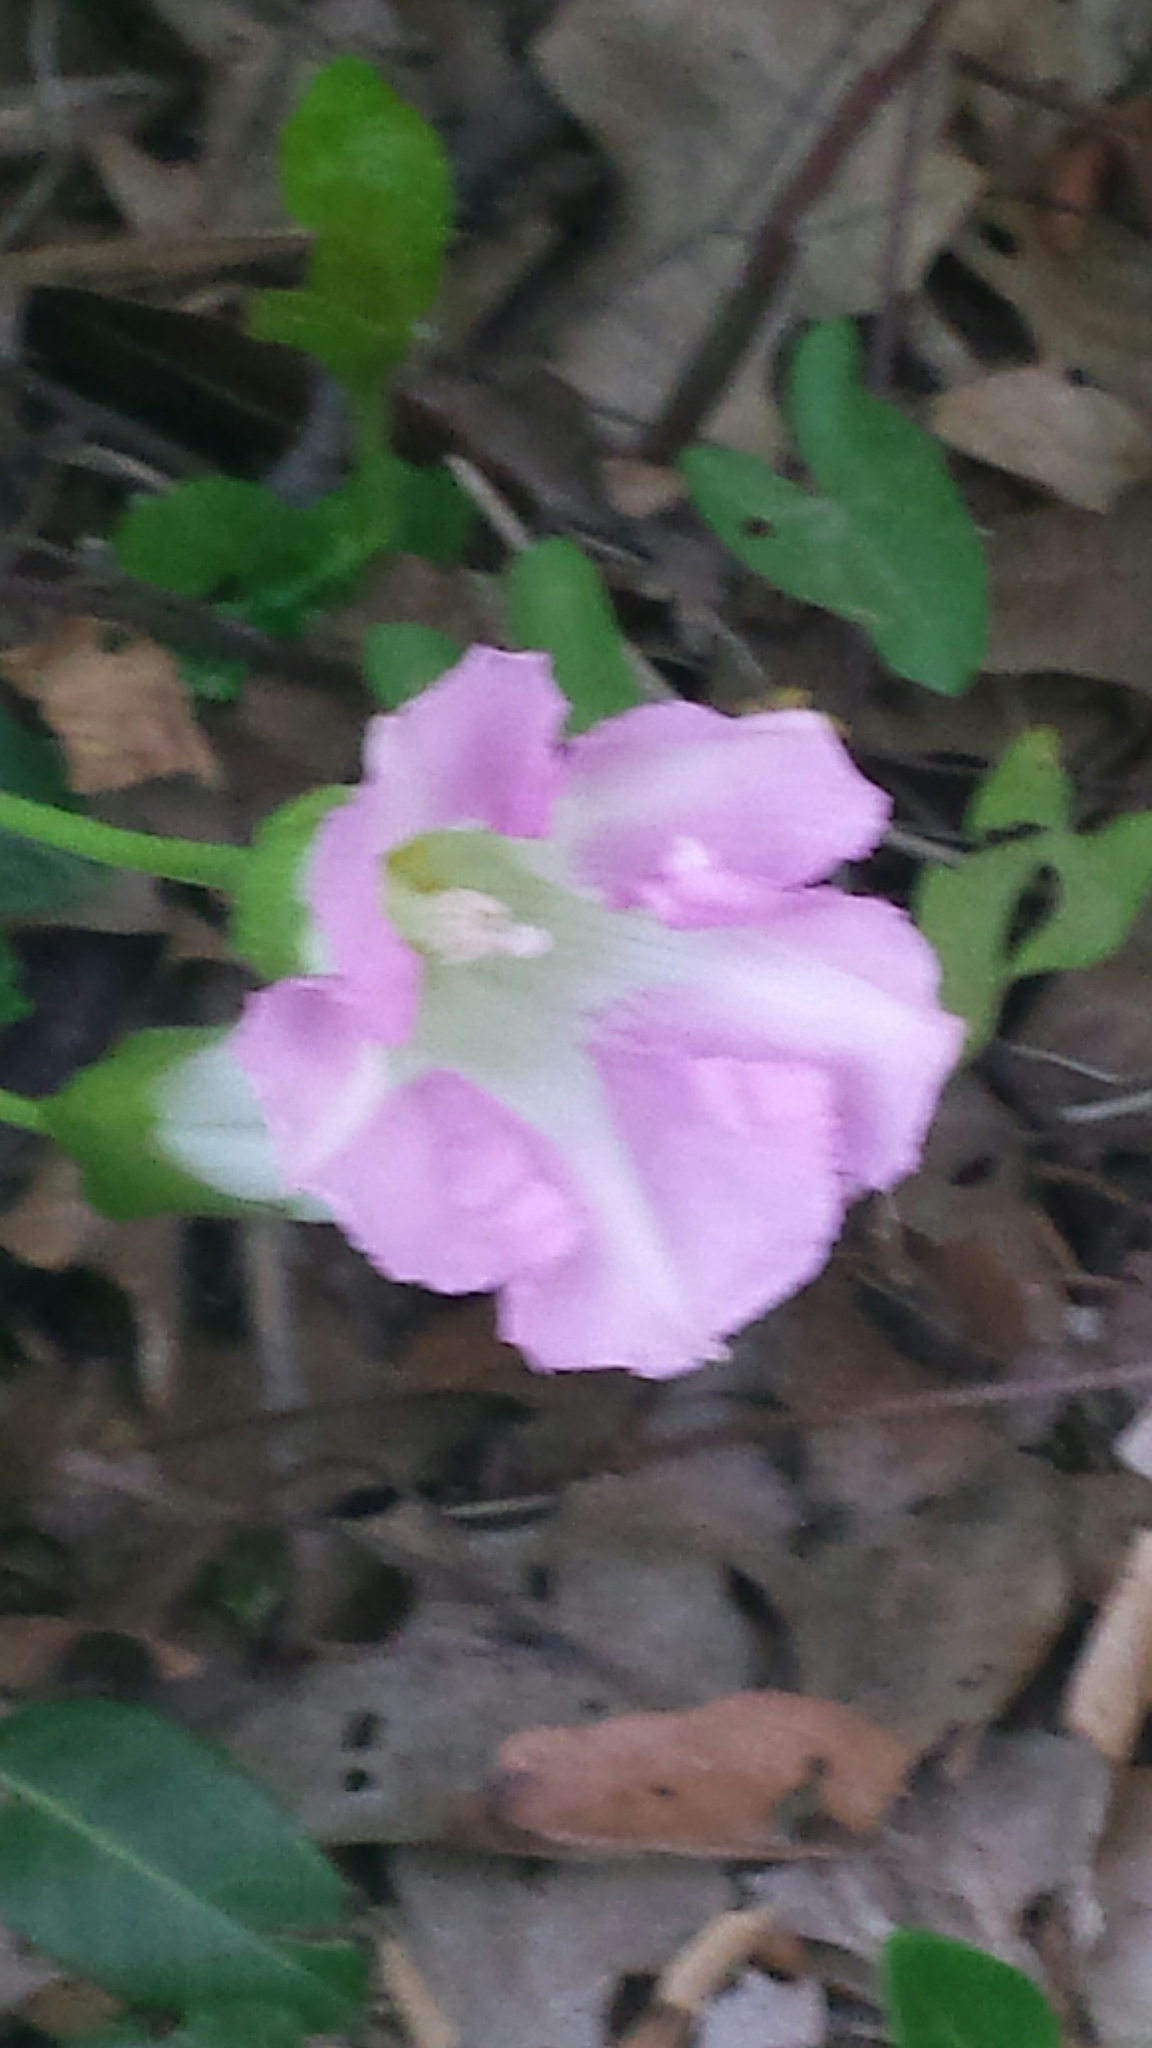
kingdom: Plantae
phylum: Tracheophyta
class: Magnoliopsida
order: Solanales
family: Convolvulaceae
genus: Calystegia
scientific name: Calystegia sepium
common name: Hedge bindweed
